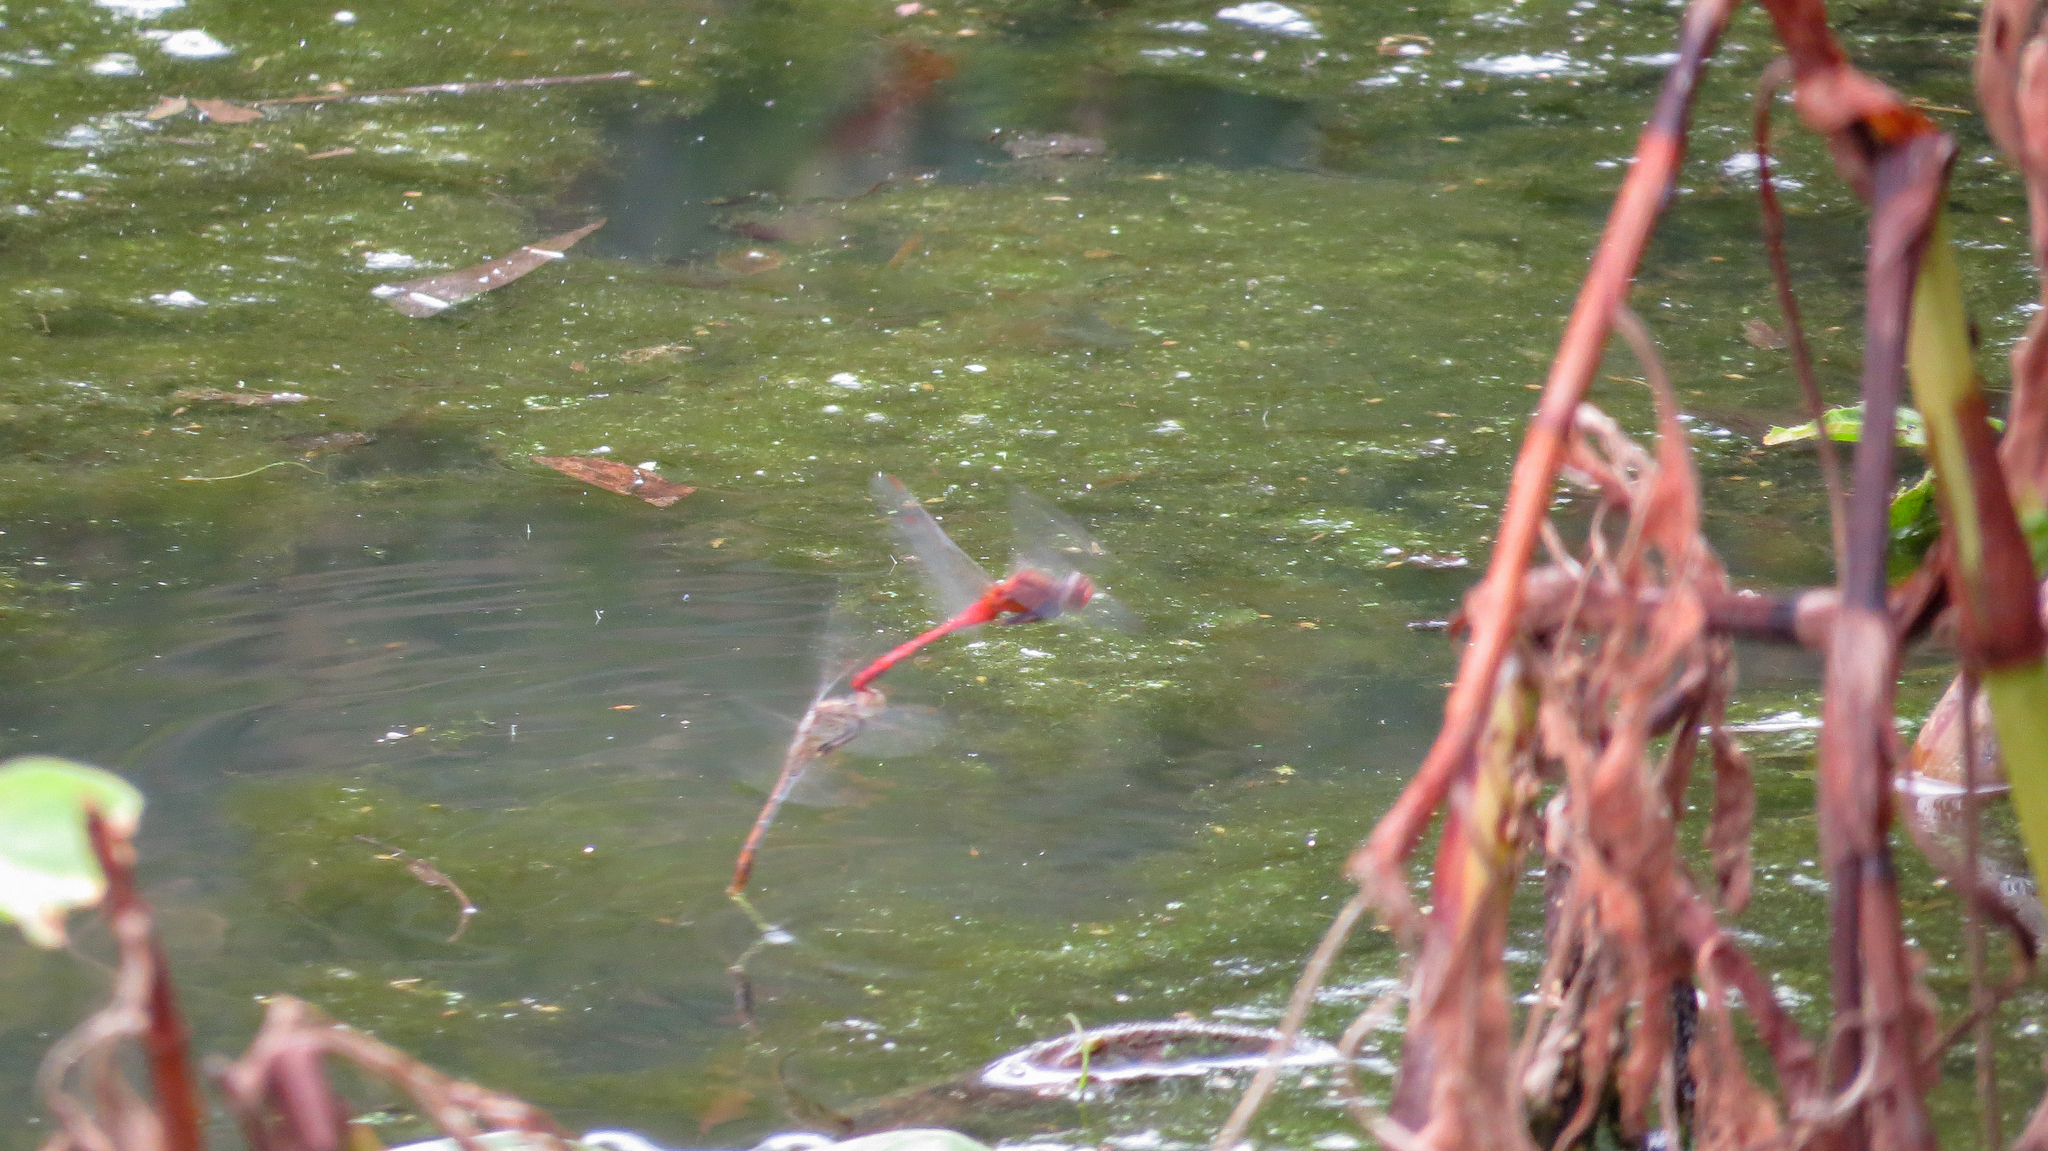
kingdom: Animalia
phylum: Arthropoda
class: Insecta
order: Odonata
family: Libellulidae
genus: Diplacodes
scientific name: Diplacodes bipunctata
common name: Red percher dragonfly
